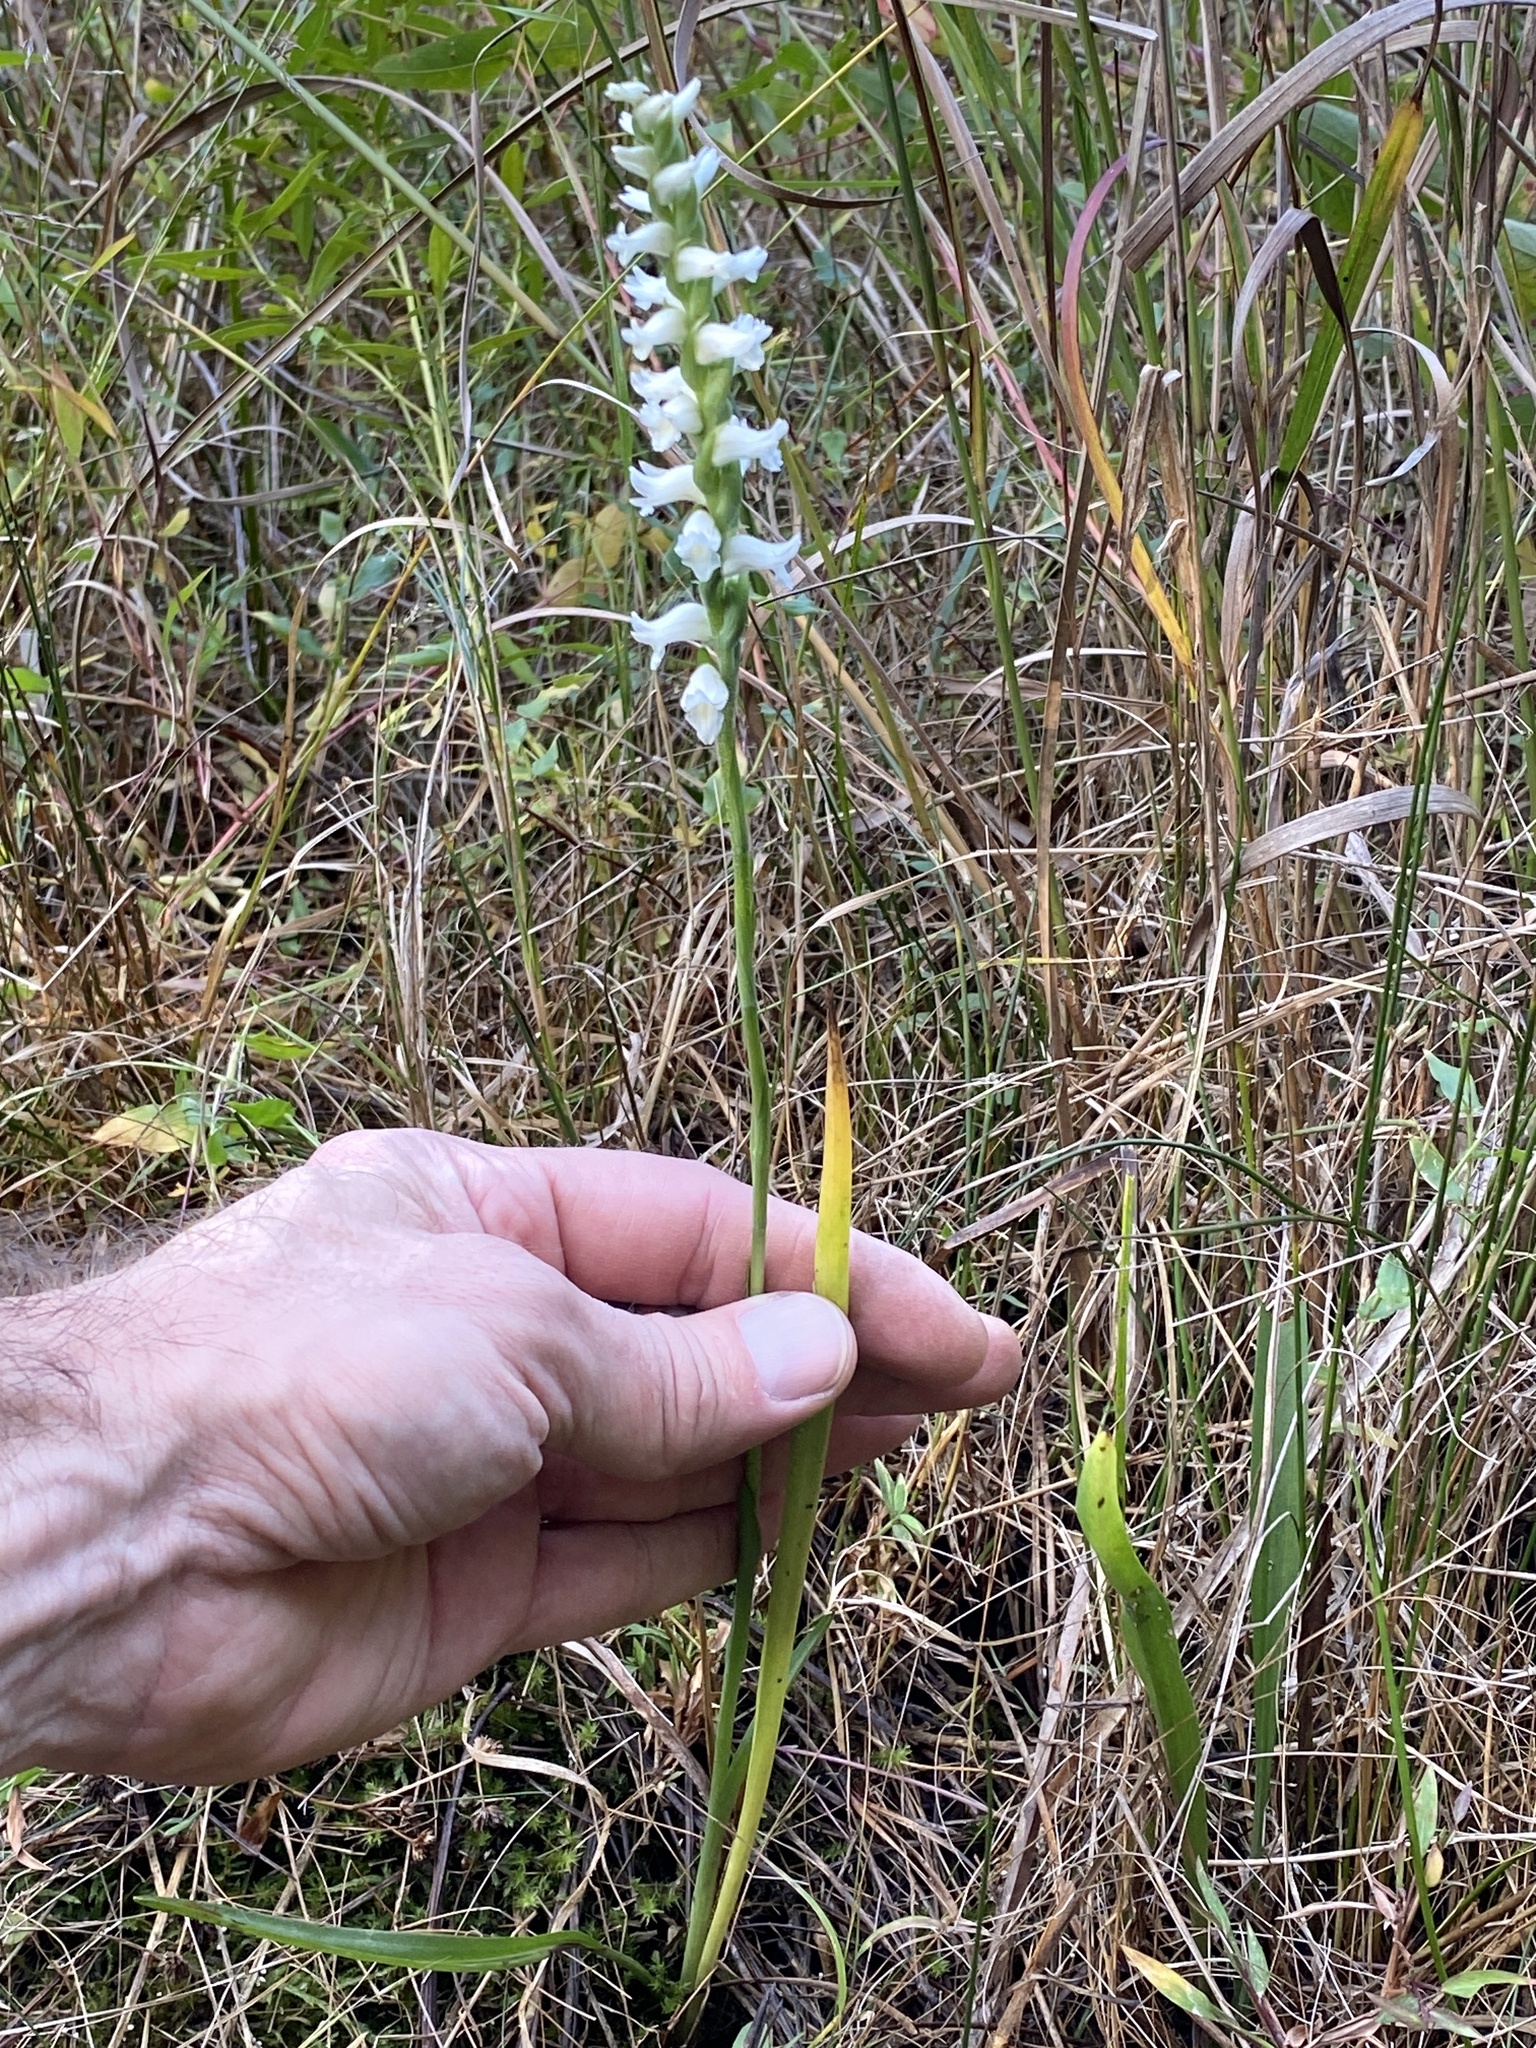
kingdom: Plantae
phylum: Tracheophyta
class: Liliopsida
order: Asparagales
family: Orchidaceae
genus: Spiranthes
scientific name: Spiranthes bightensis
